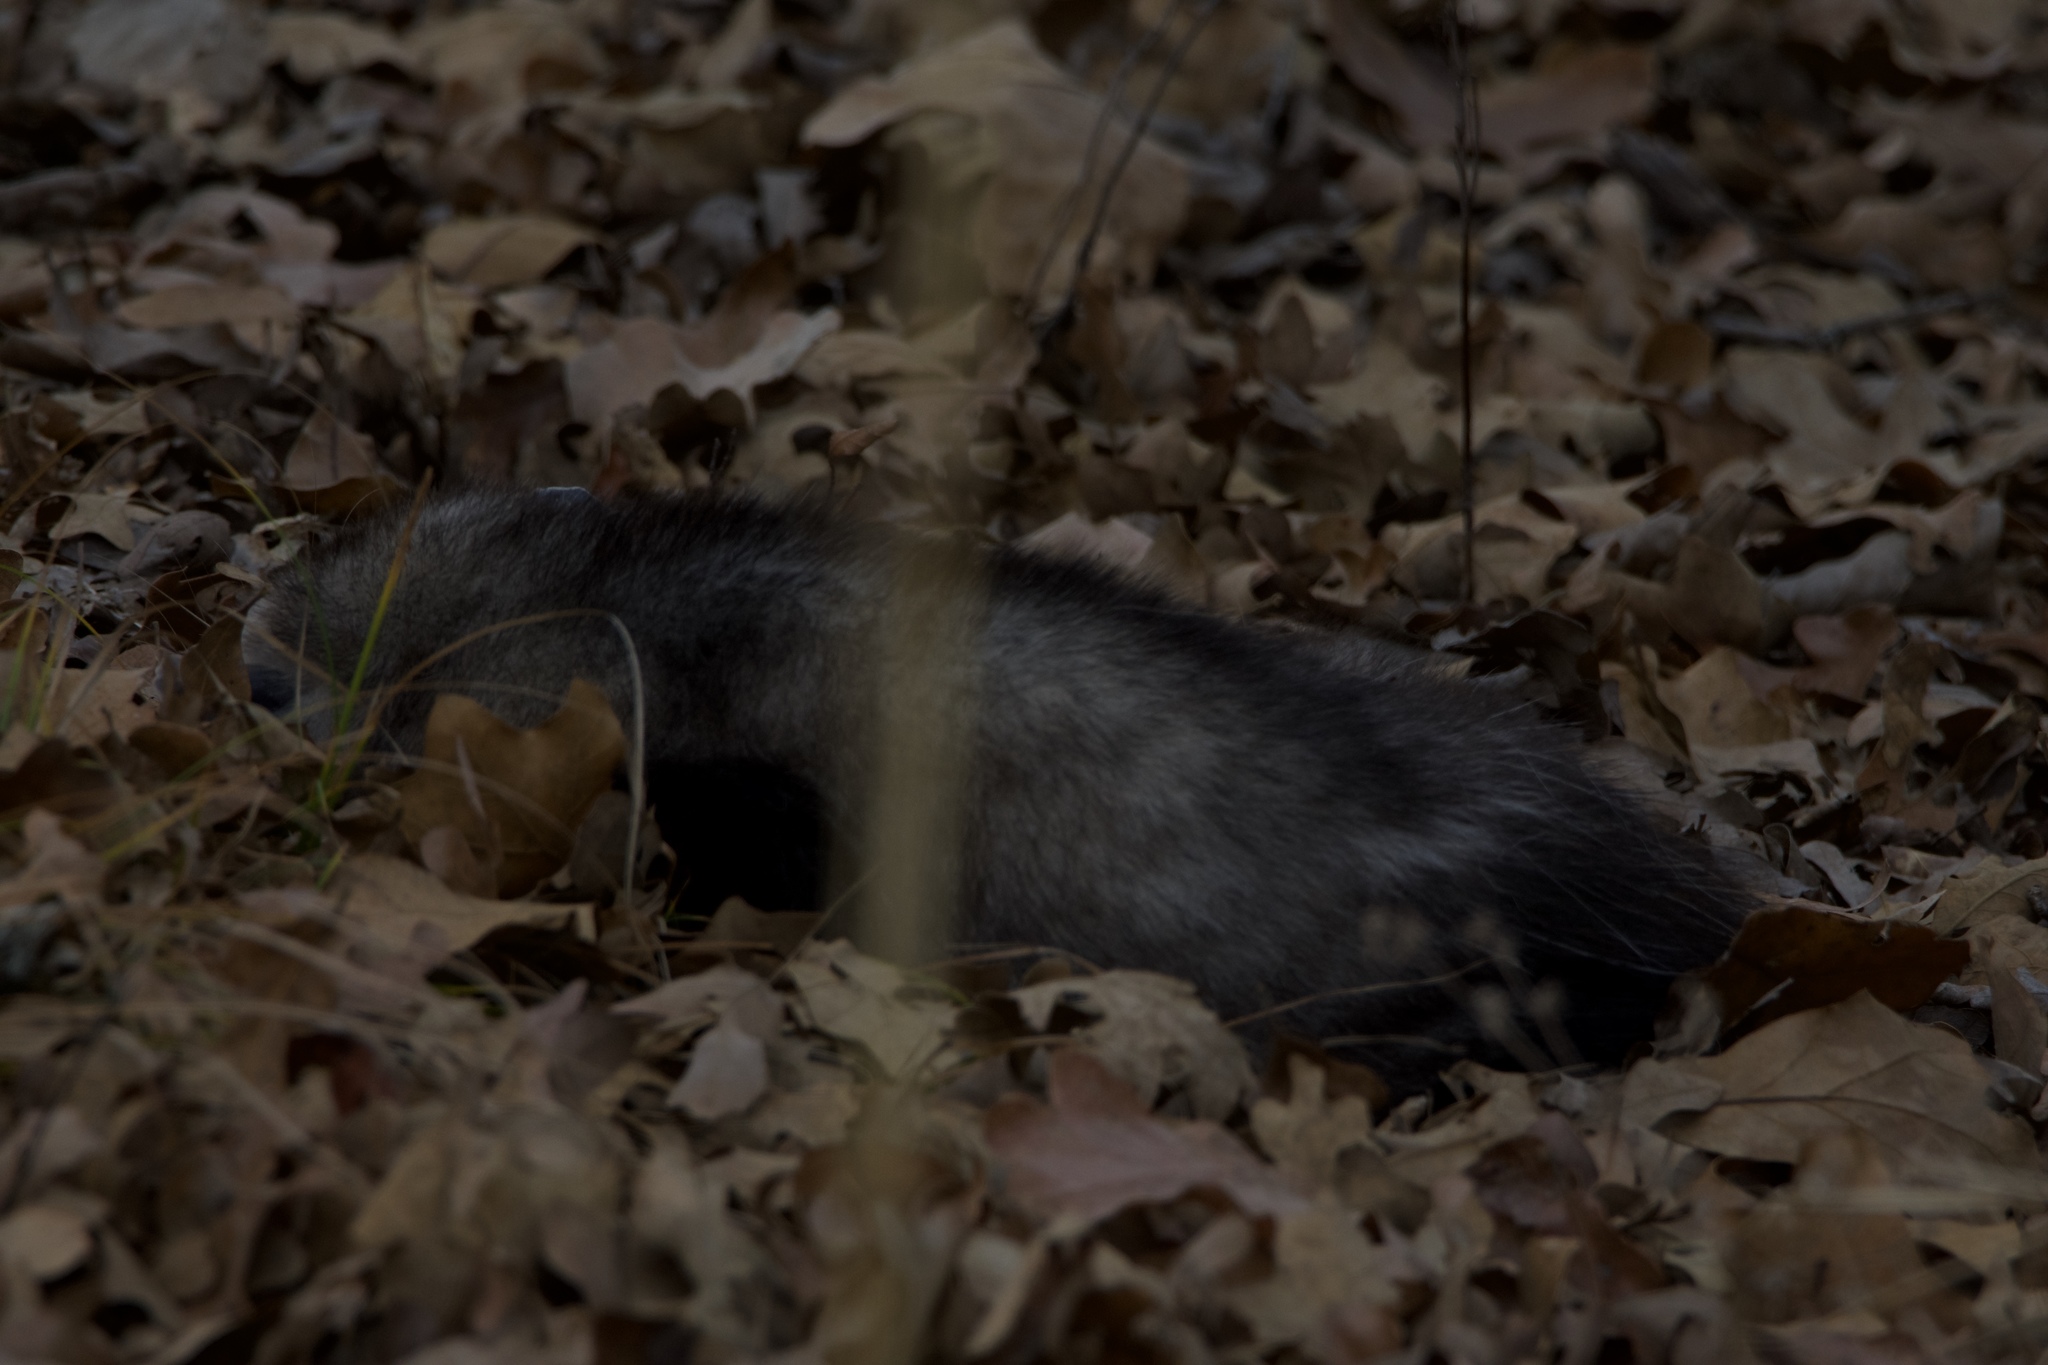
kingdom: Animalia
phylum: Chordata
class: Mammalia
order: Didelphimorphia
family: Didelphidae
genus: Didelphis
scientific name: Didelphis virginiana
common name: Virginia opossum
